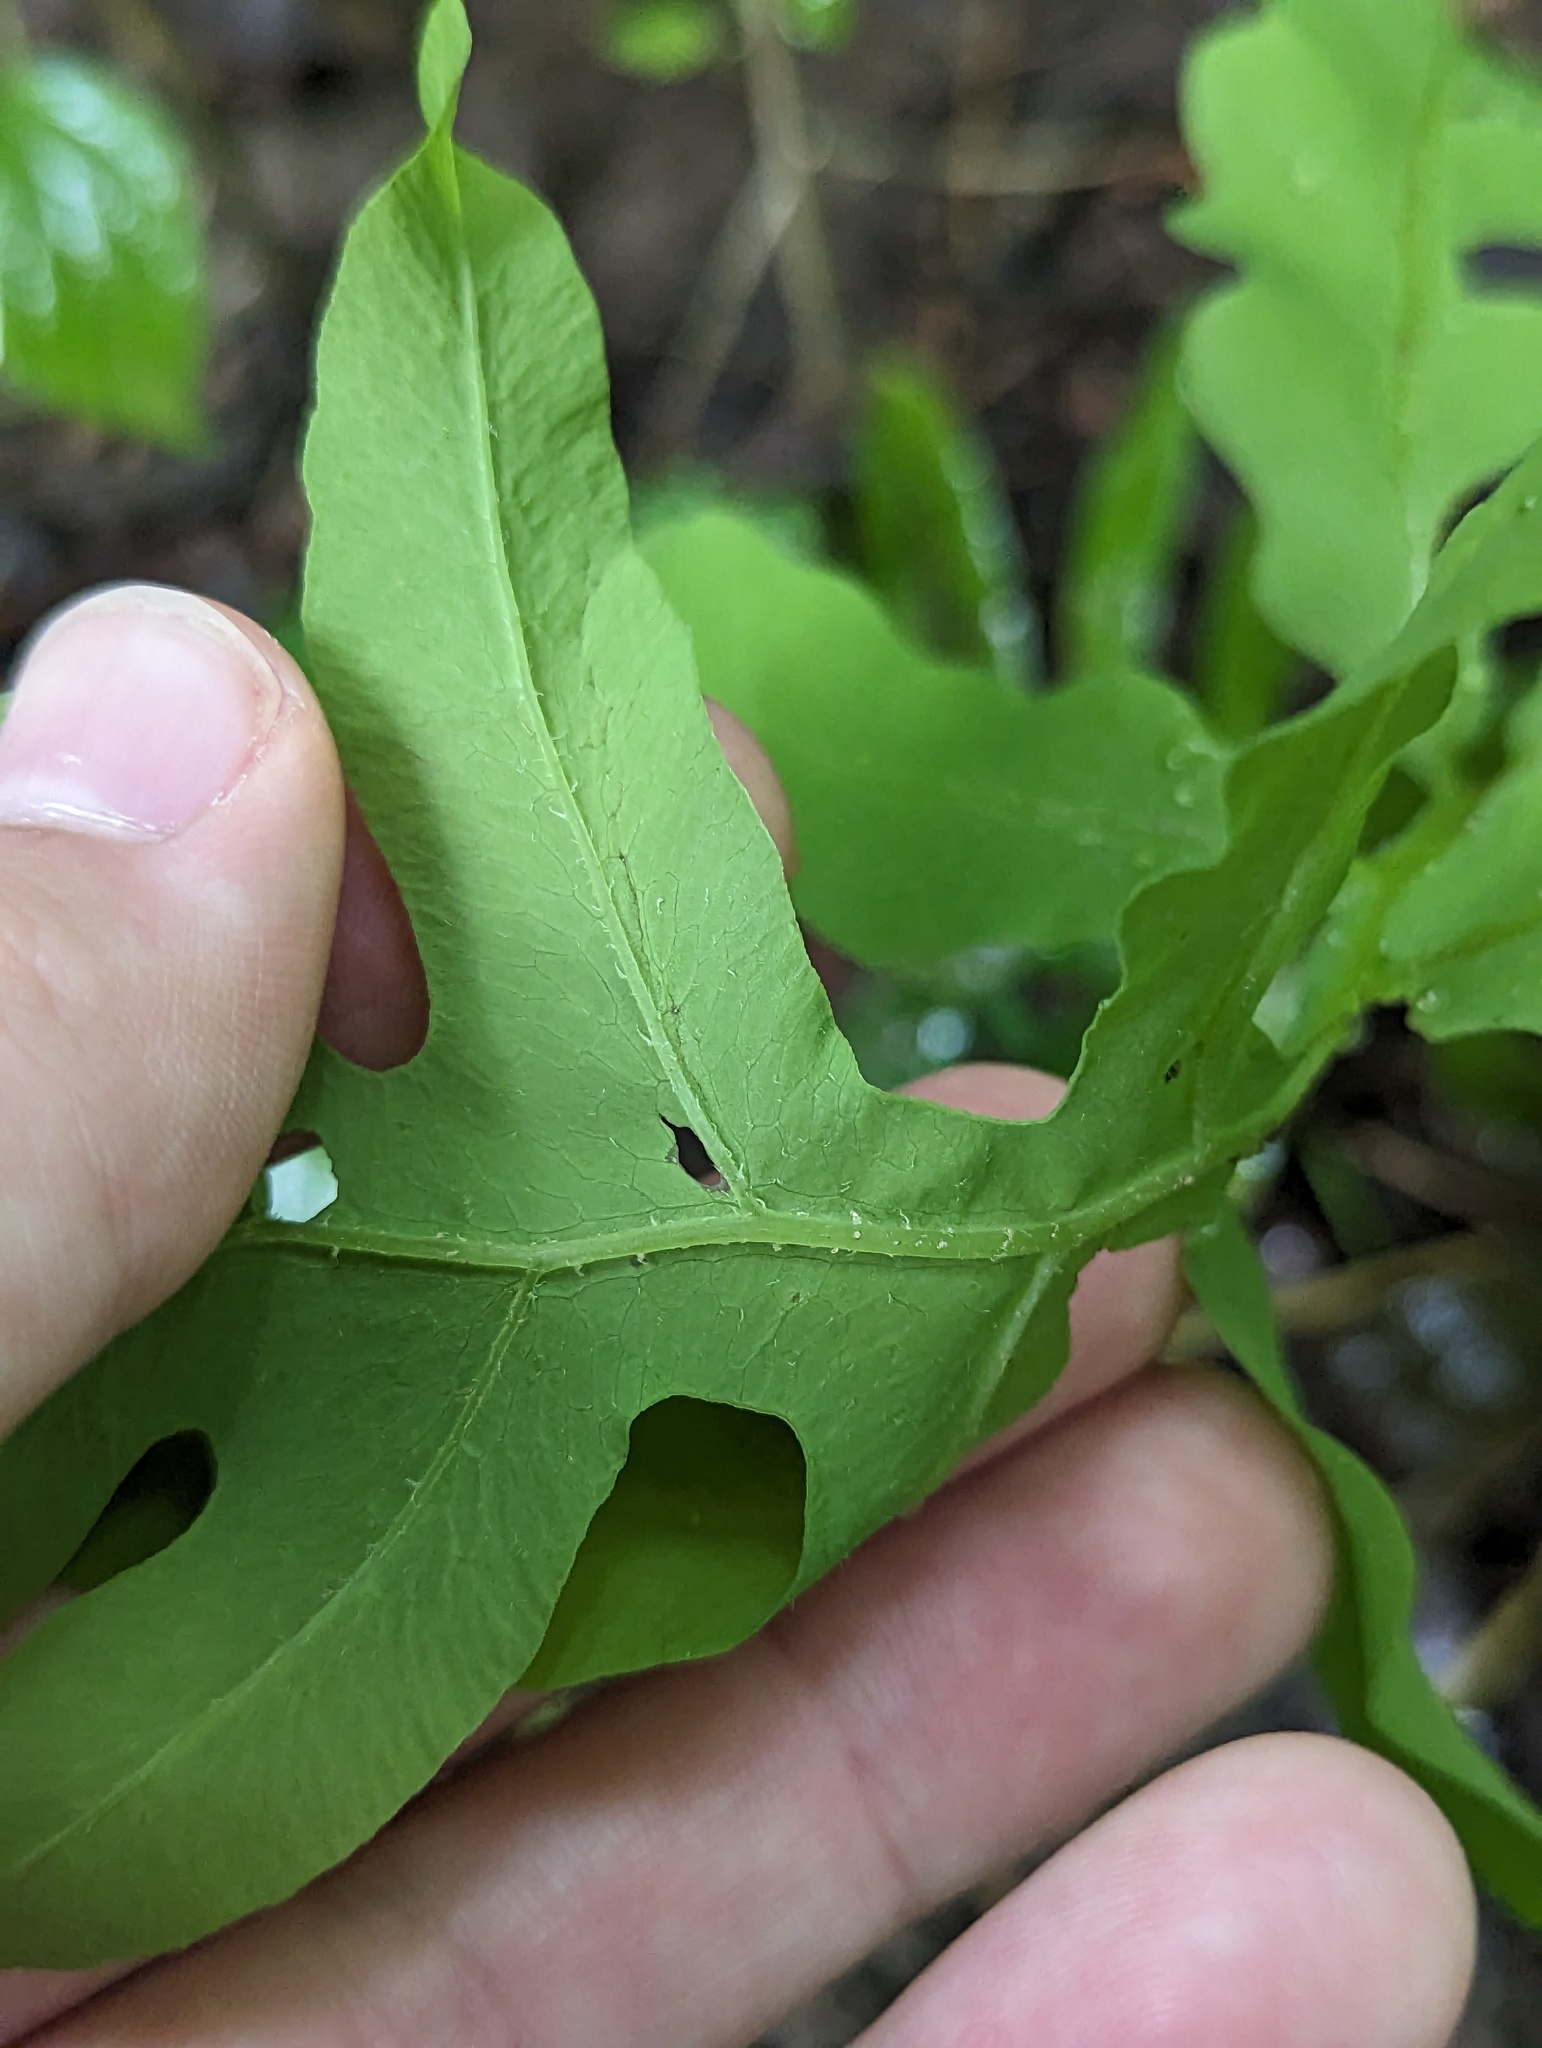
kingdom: Plantae
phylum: Tracheophyta
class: Polypodiopsida
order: Polypodiales
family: Onocleaceae
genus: Onoclea
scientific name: Onoclea sensibilis
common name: Sensitive fern
